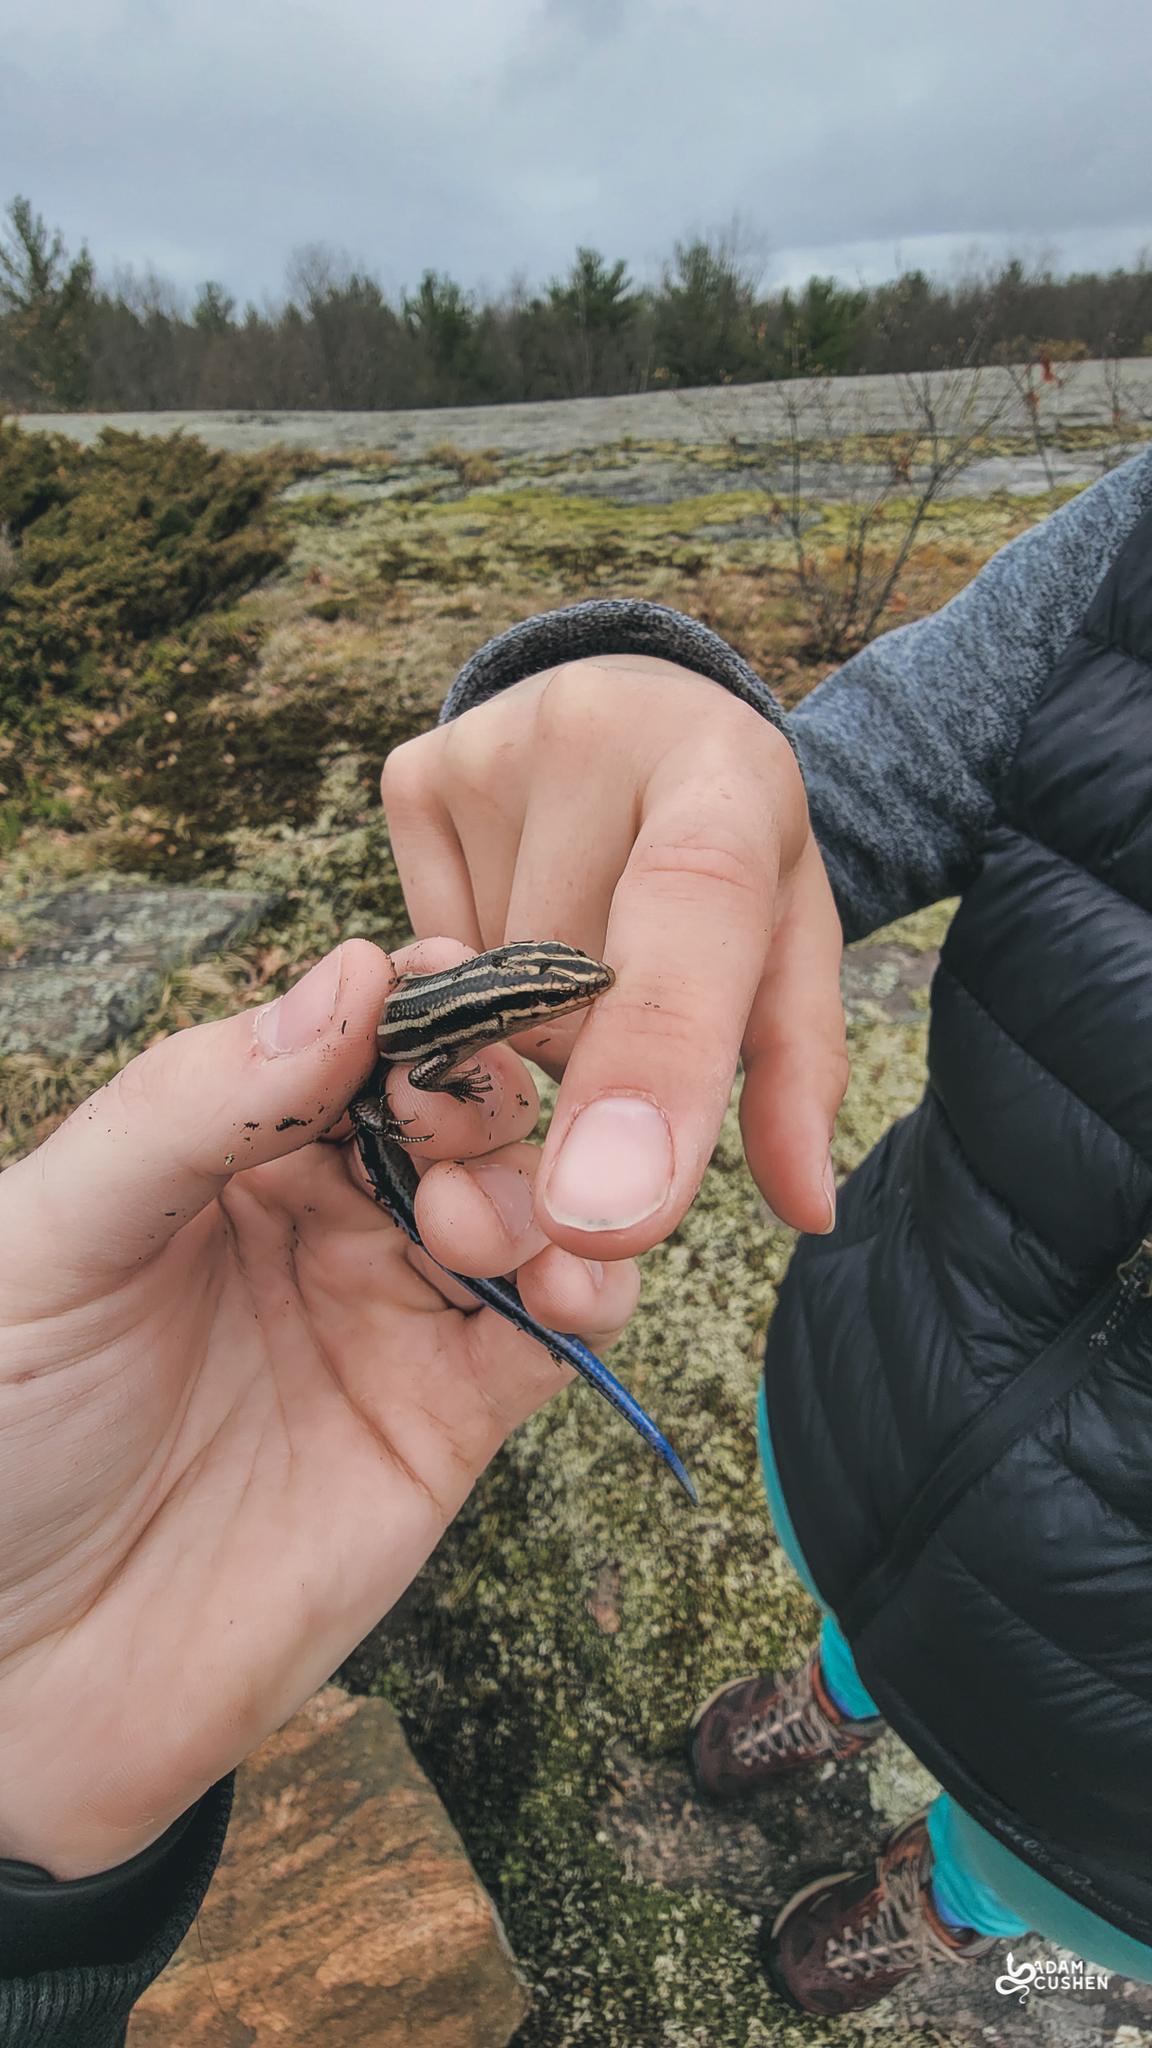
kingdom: Animalia
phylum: Chordata
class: Squamata
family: Scincidae
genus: Plestiodon
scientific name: Plestiodon fasciatus
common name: Five-lined skink
